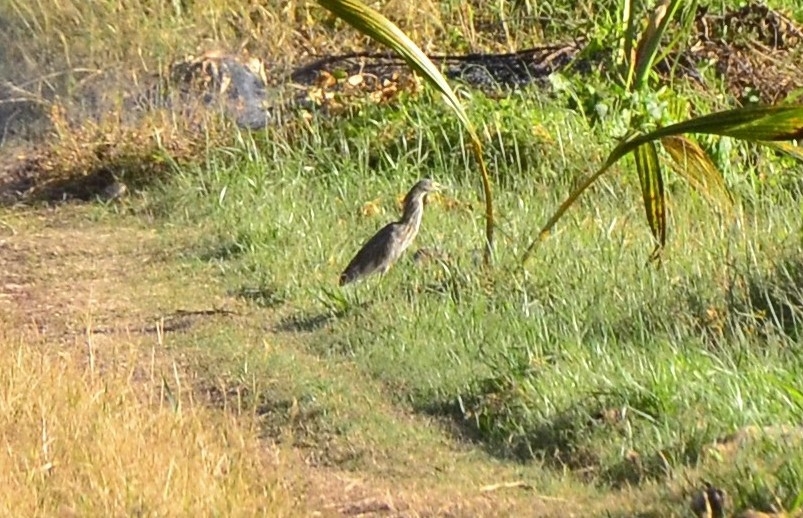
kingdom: Animalia
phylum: Chordata
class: Aves
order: Pelecaniformes
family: Ardeidae
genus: Ardeola
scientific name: Ardeola grayii
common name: Indian pond heron
